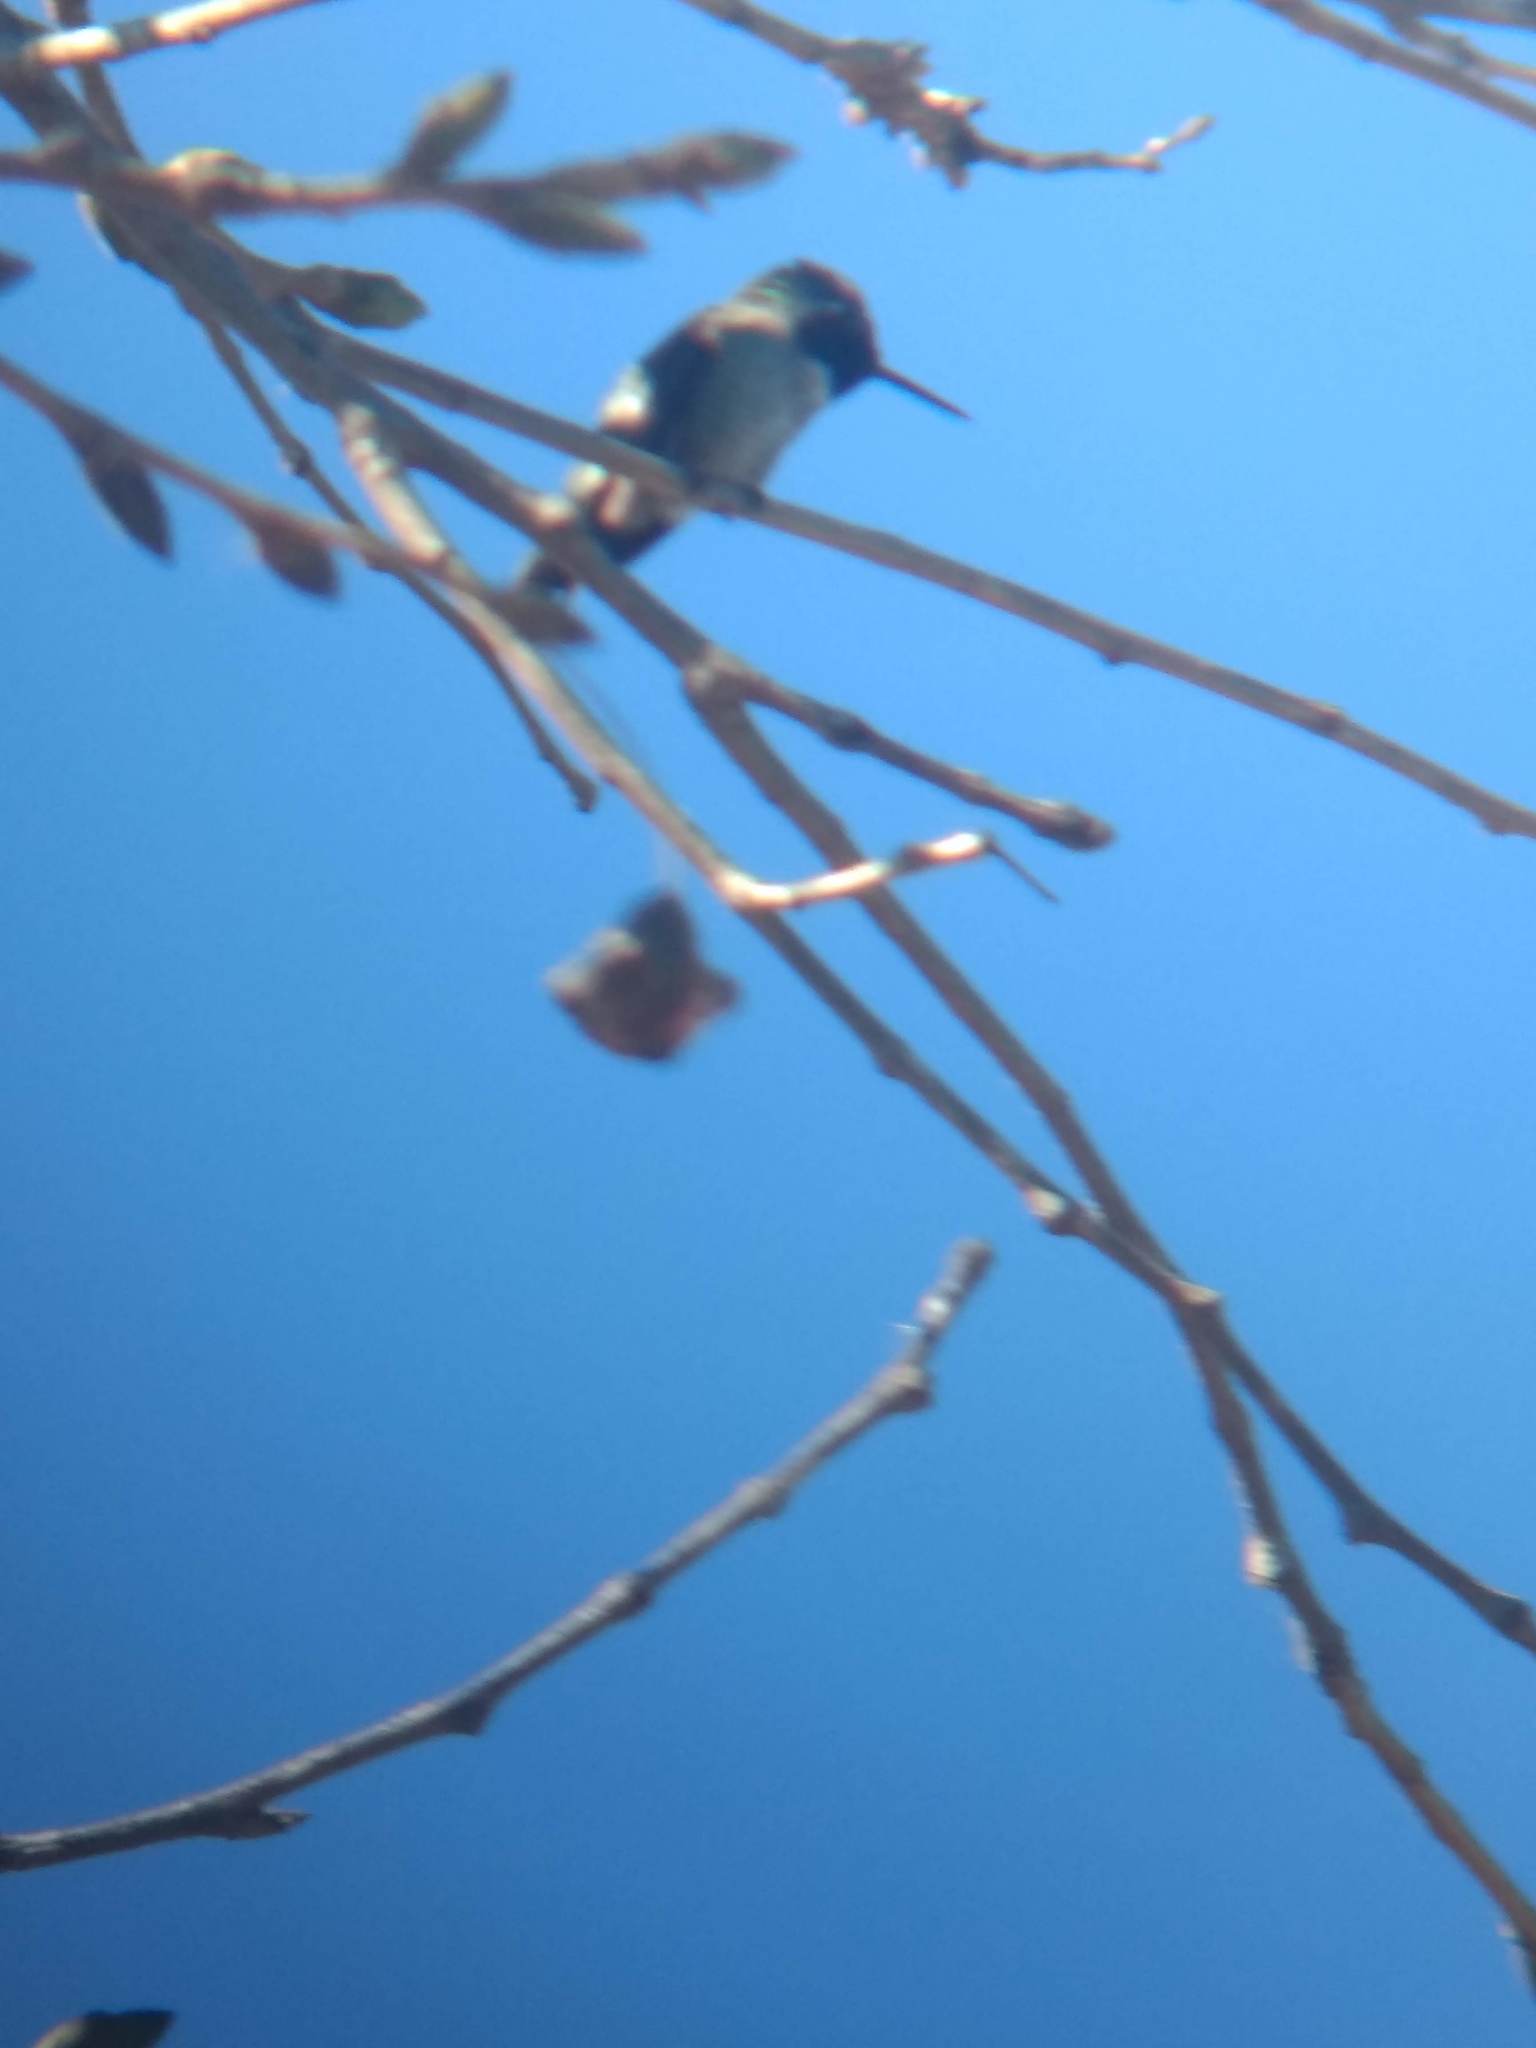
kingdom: Animalia
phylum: Chordata
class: Aves
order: Apodiformes
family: Trochilidae
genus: Calypte
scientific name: Calypte anna
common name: Anna's hummingbird
